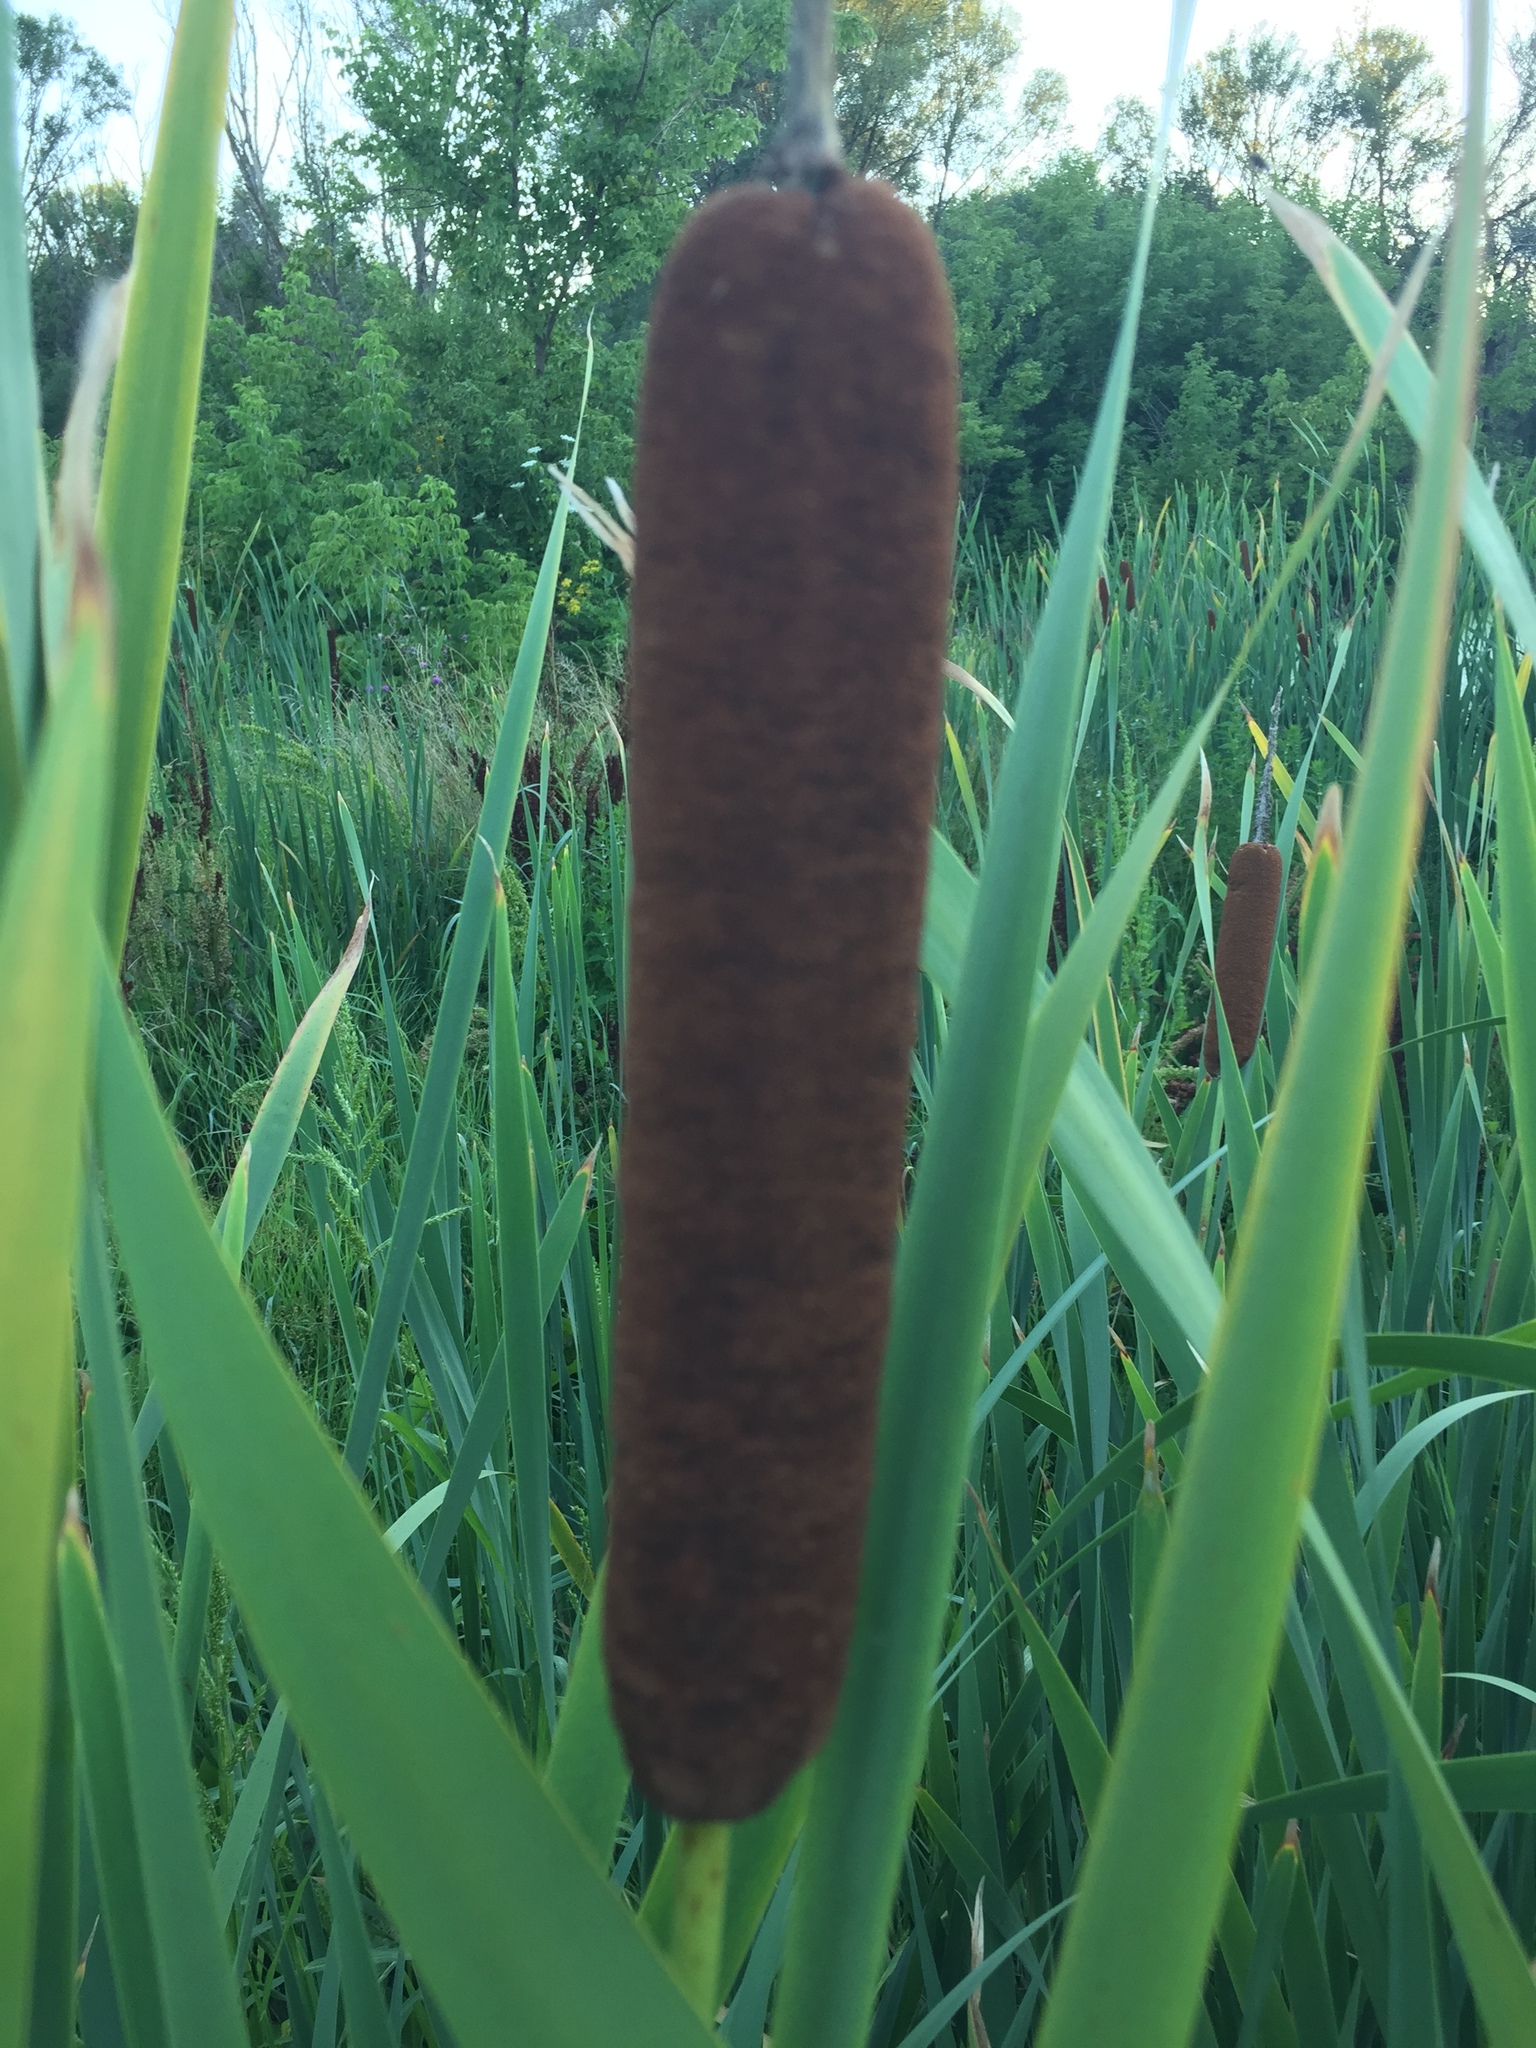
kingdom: Plantae
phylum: Tracheophyta
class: Liliopsida
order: Poales
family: Typhaceae
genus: Typha
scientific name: Typha latifolia
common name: Broadleaf cattail
